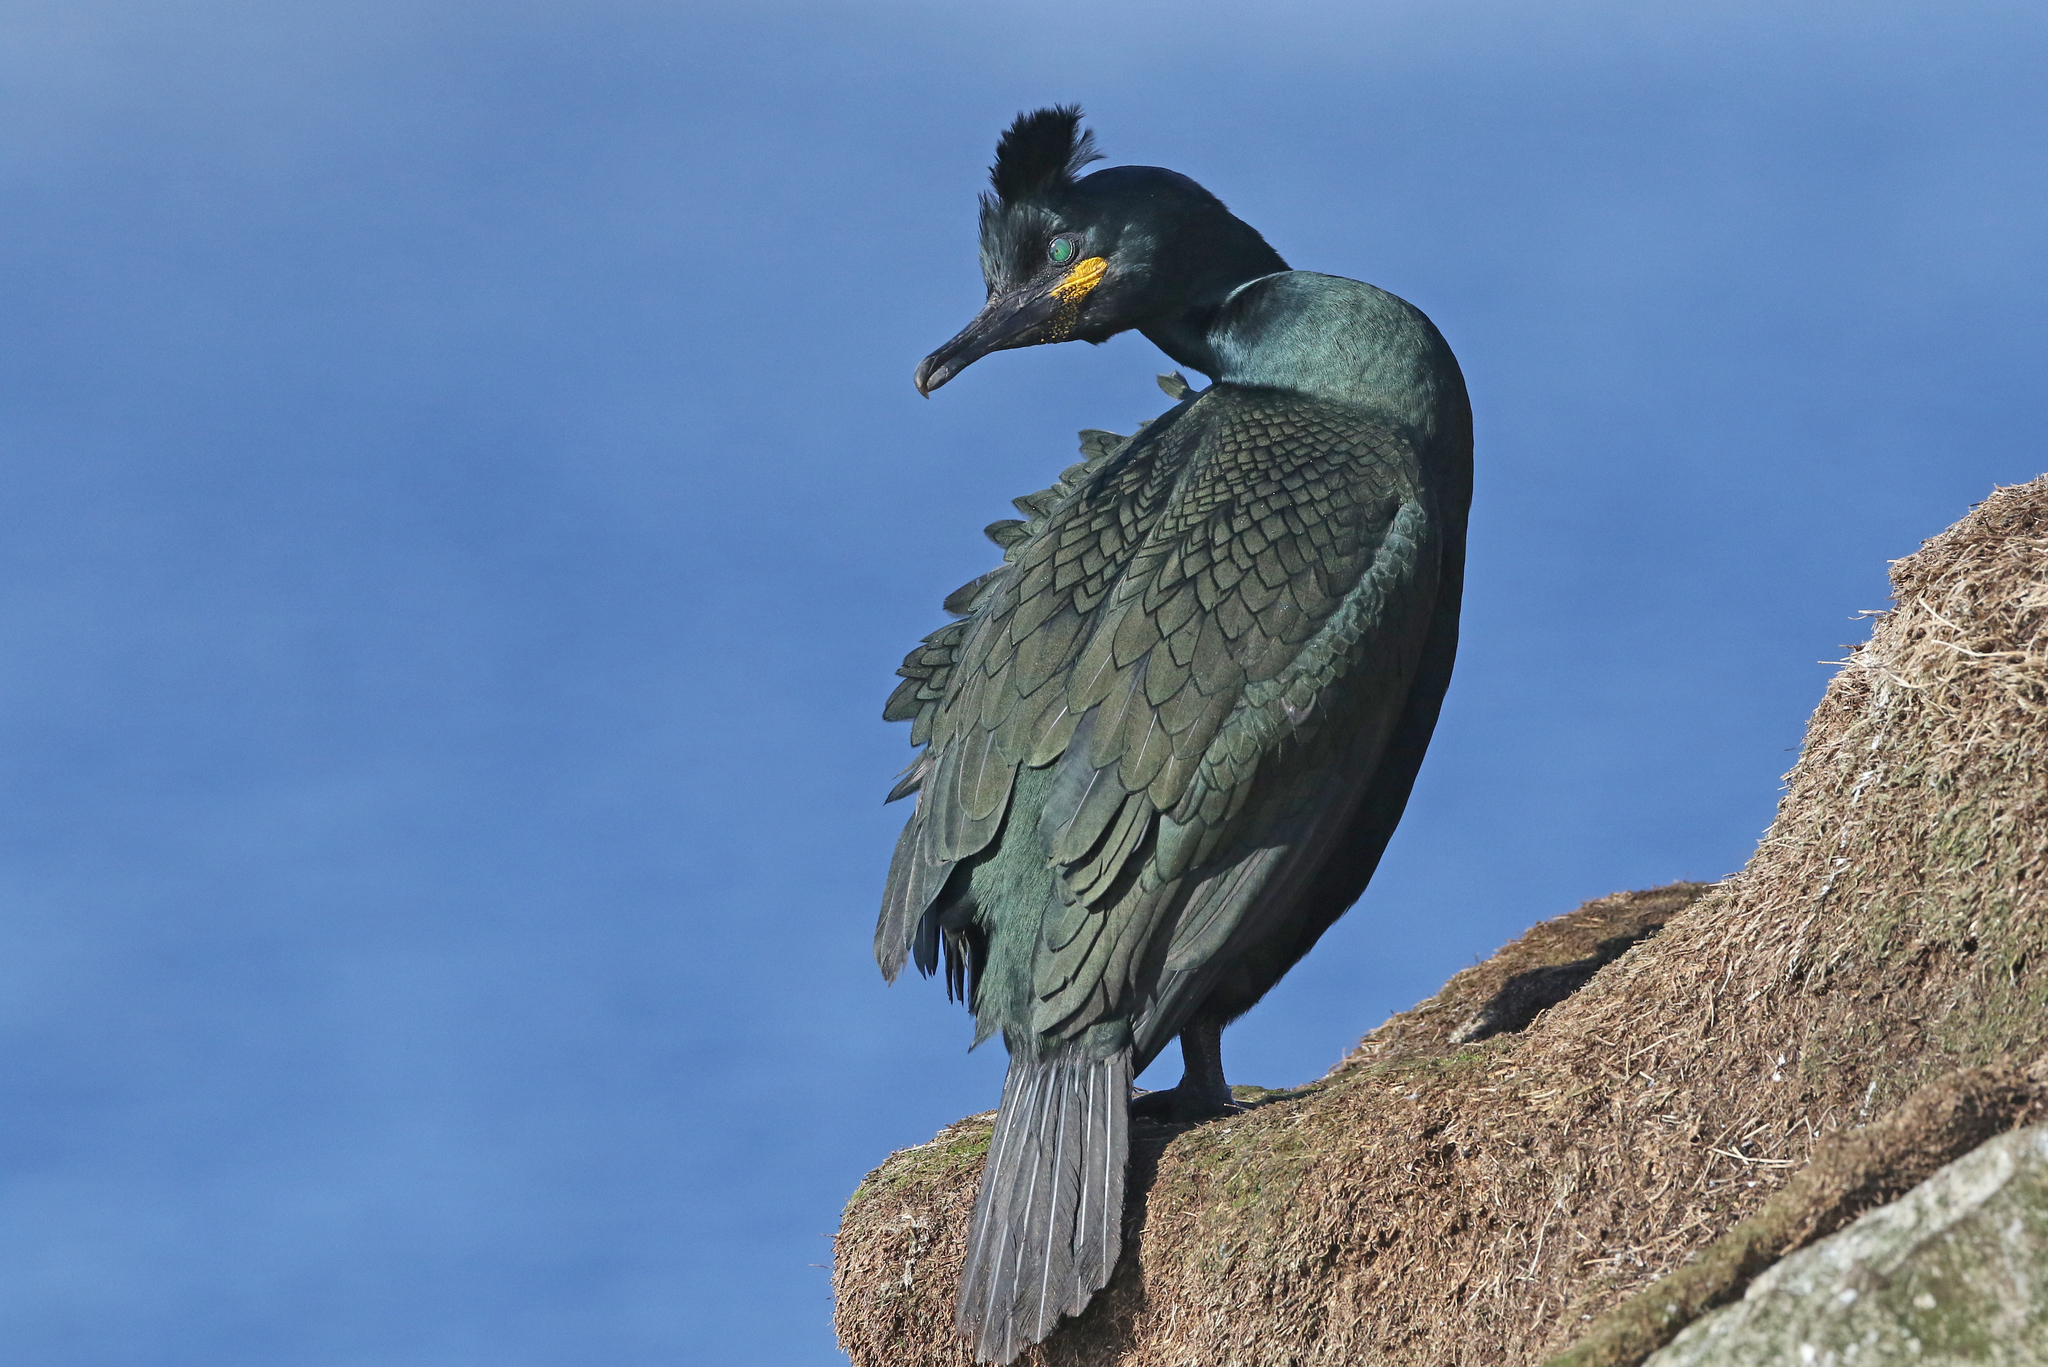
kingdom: Animalia
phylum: Chordata
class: Aves
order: Suliformes
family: Phalacrocoracidae
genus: Phalacrocorax
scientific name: Phalacrocorax aristotelis
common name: European shag
